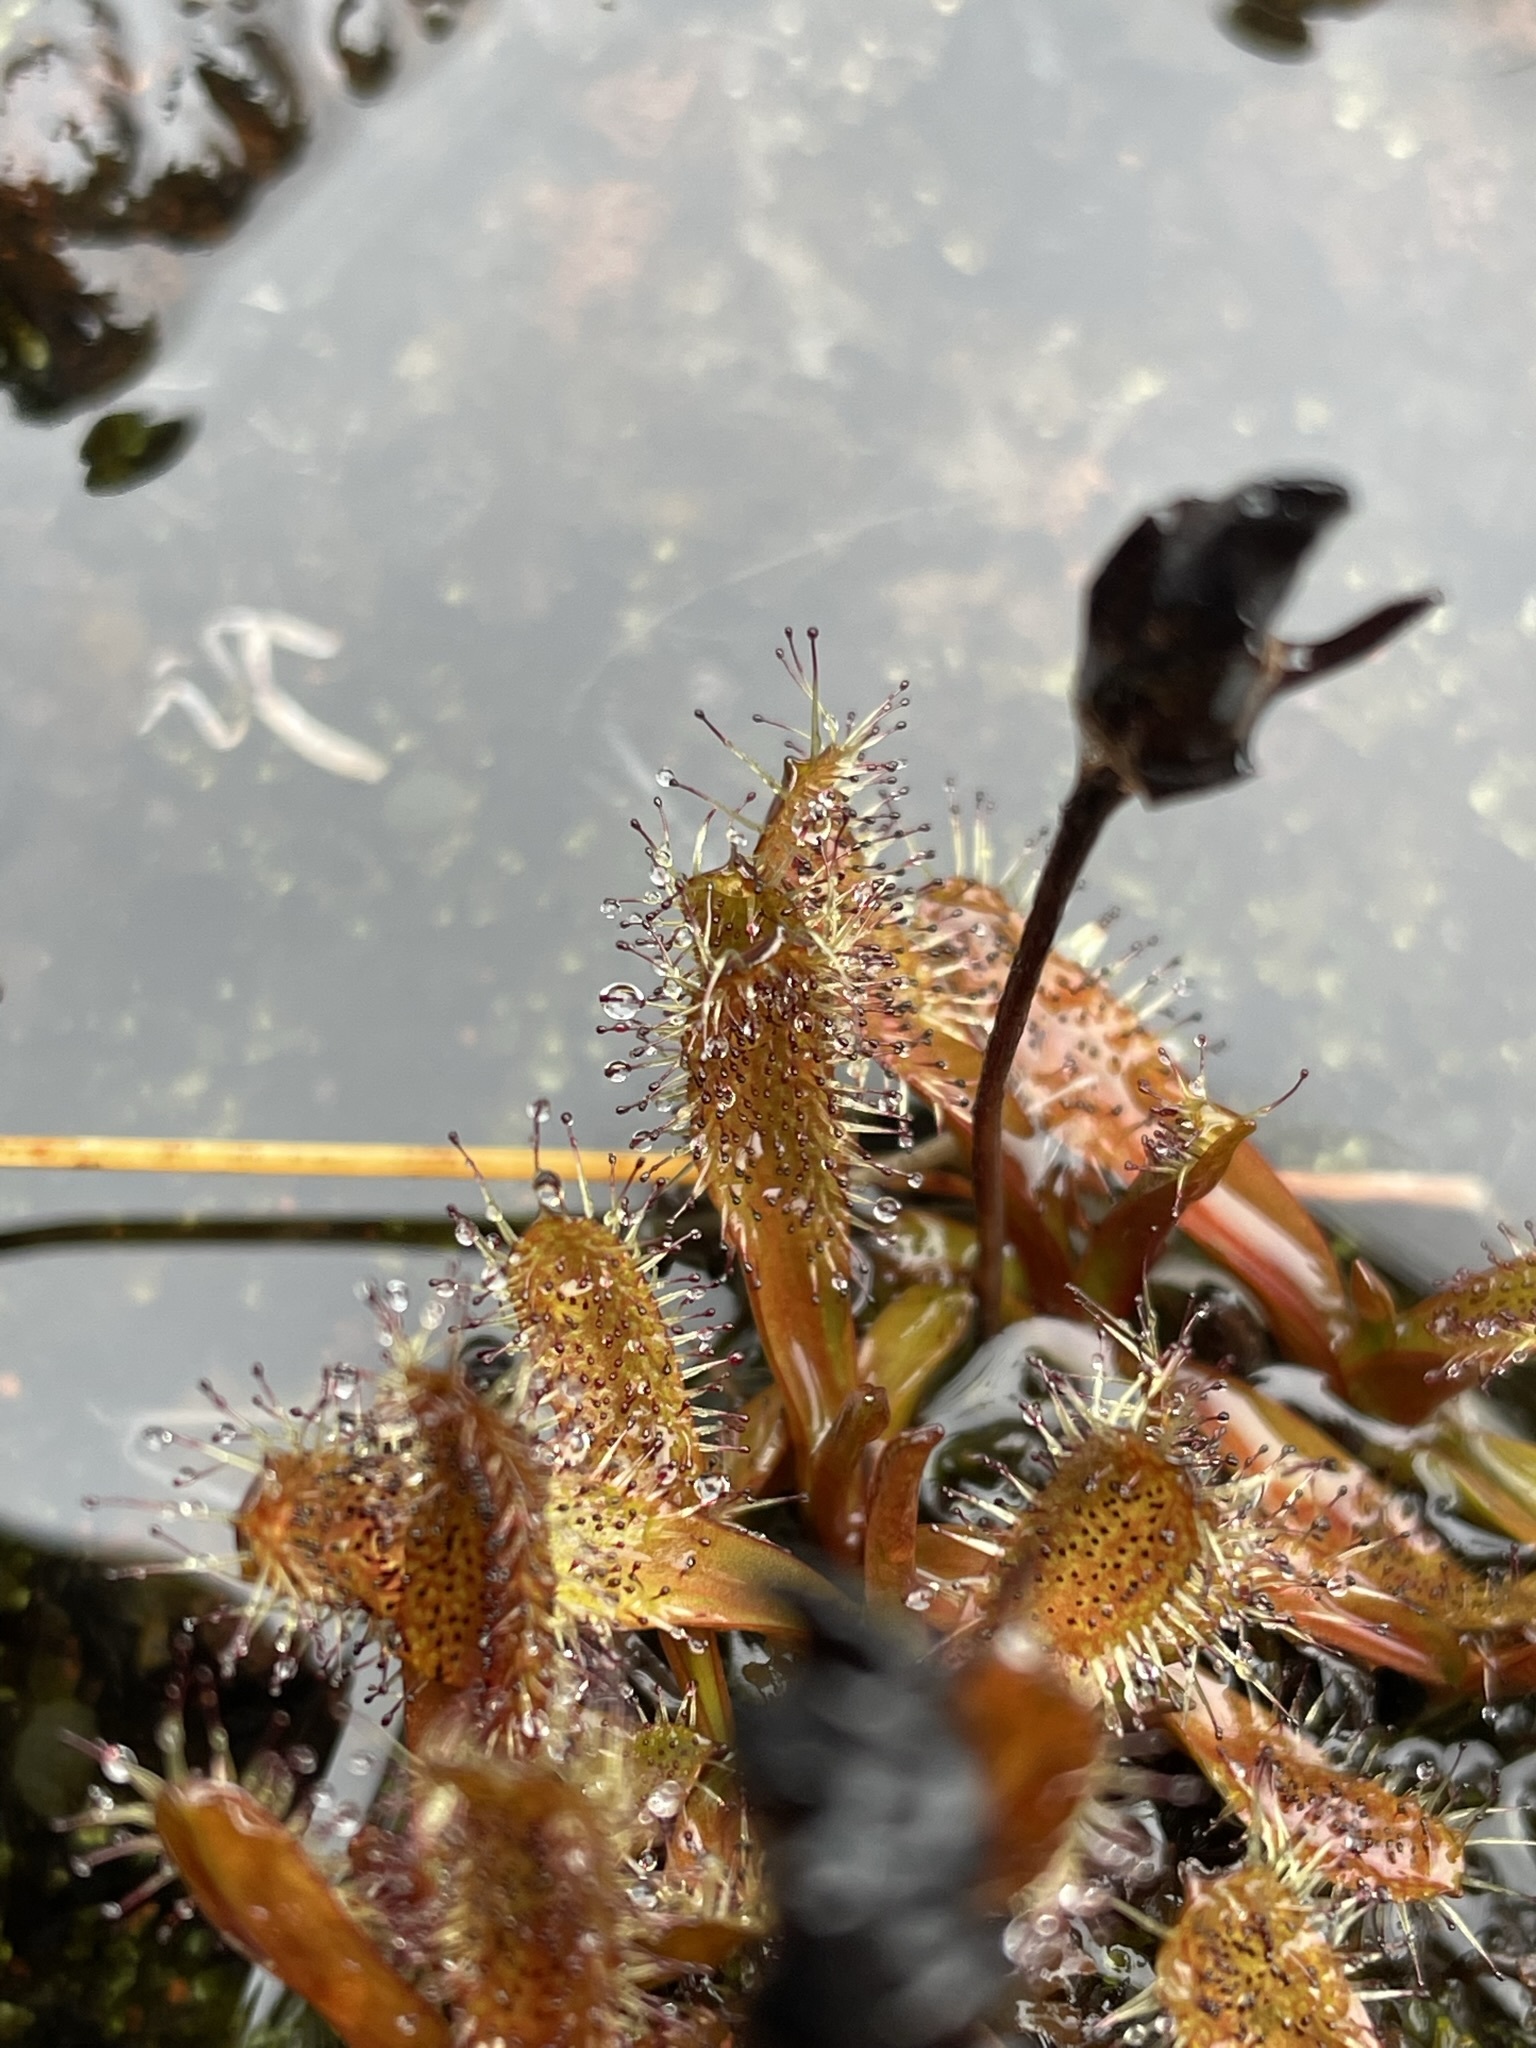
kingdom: Plantae
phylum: Tracheophyta
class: Magnoliopsida
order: Caryophyllales
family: Droseraceae
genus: Drosera
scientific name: Drosera arcturi
